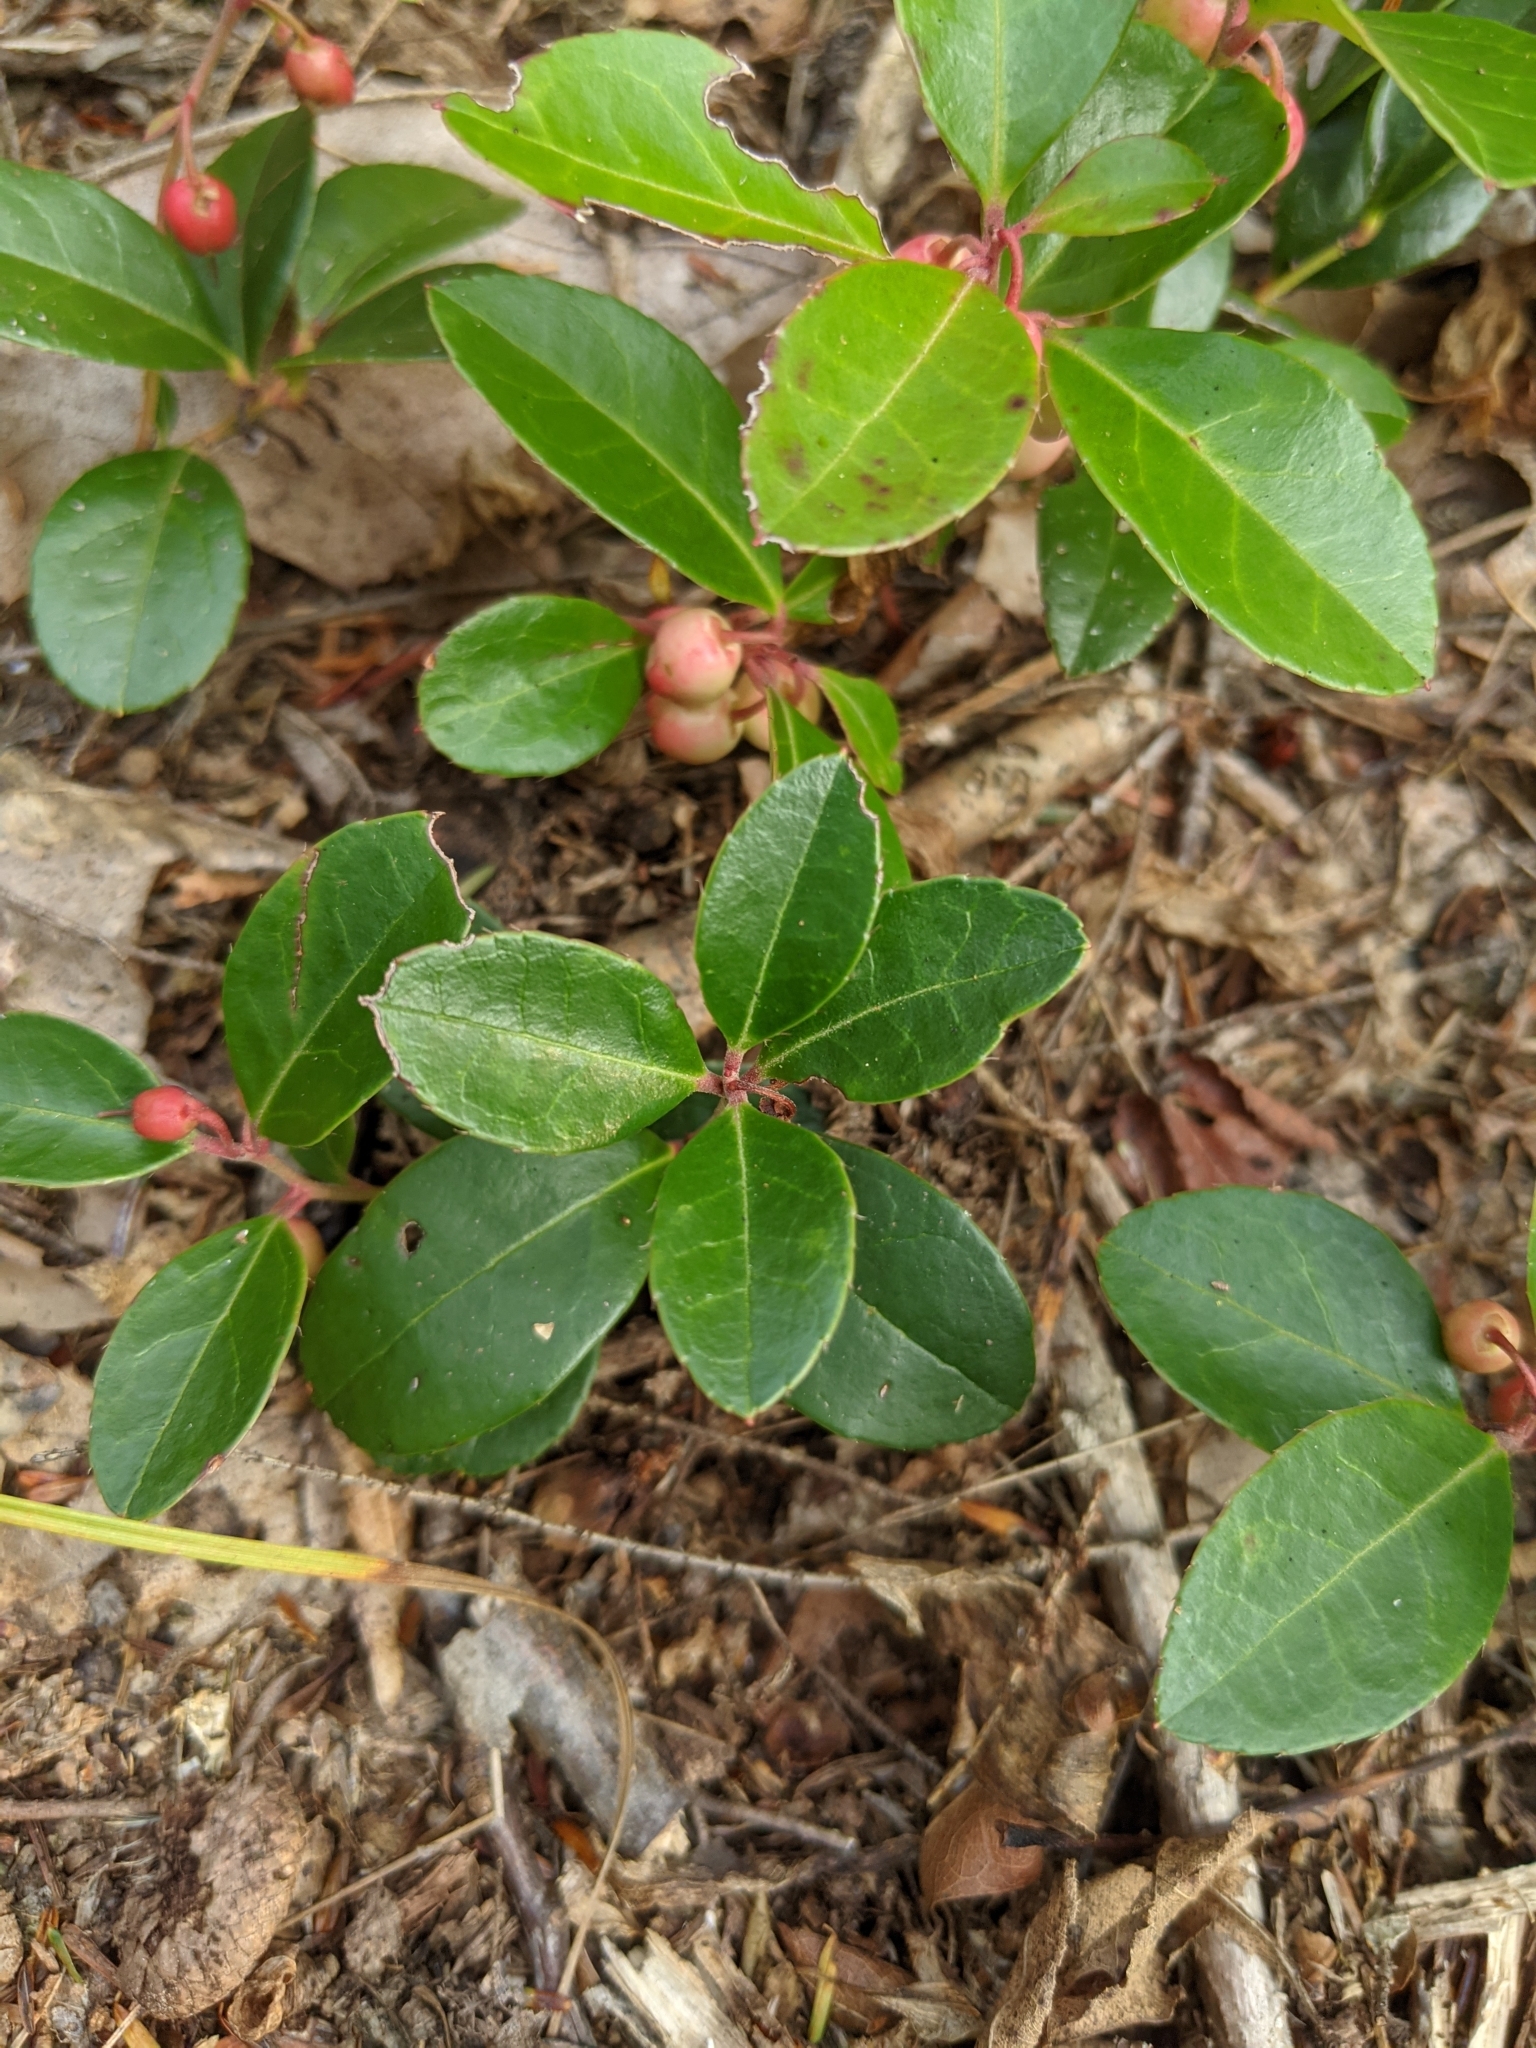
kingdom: Plantae
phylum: Tracheophyta
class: Magnoliopsida
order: Ericales
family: Ericaceae
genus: Gaultheria
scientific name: Gaultheria procumbens
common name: Checkerberry
